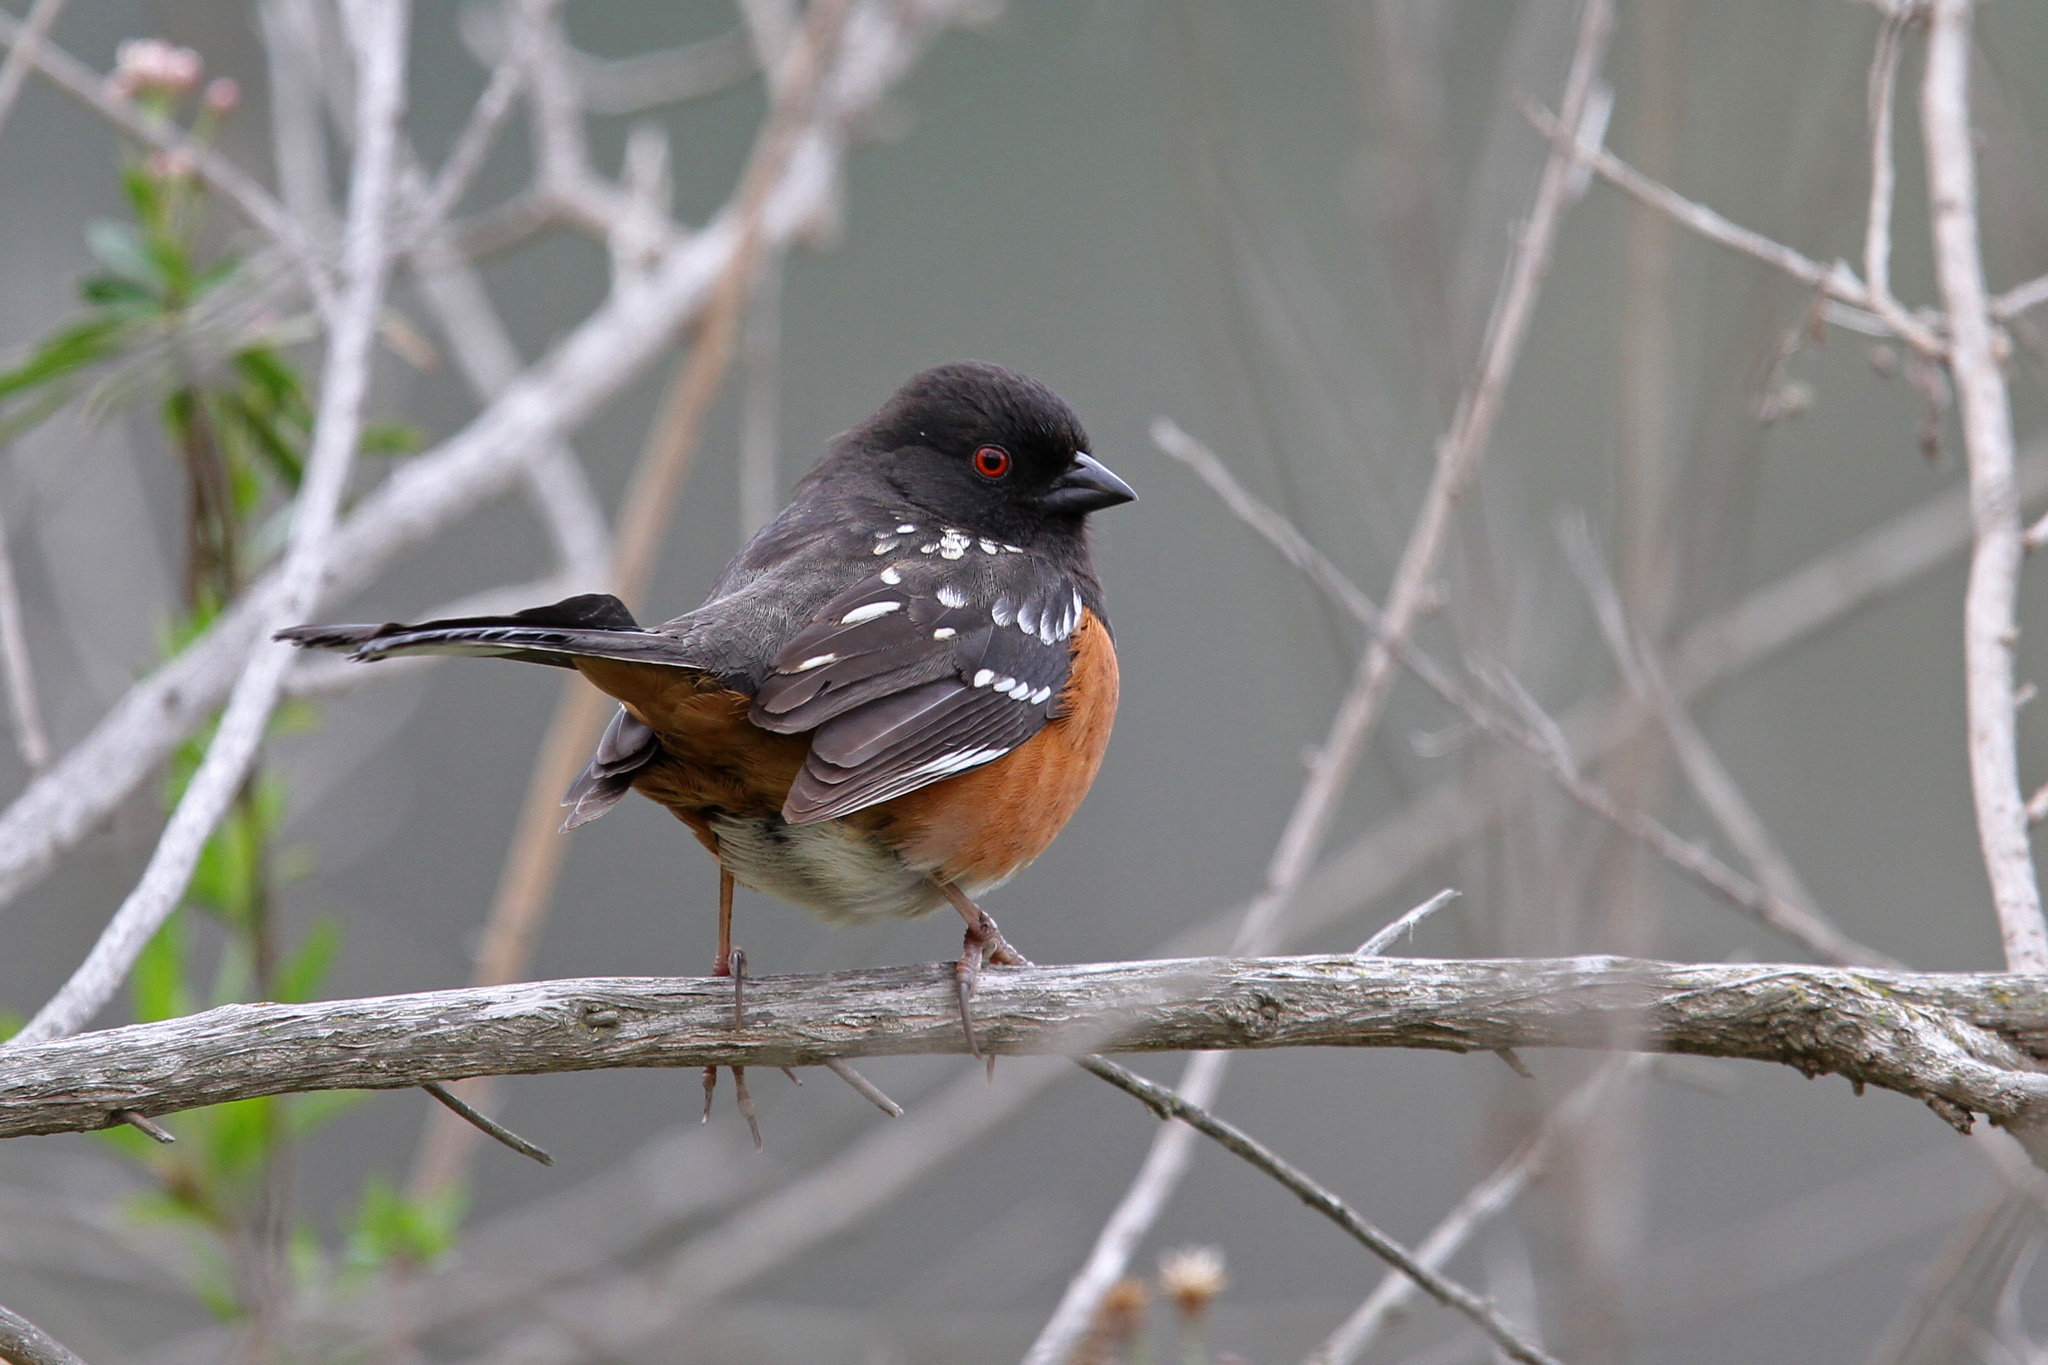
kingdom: Animalia
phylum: Chordata
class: Aves
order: Passeriformes
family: Passerellidae
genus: Pipilo
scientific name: Pipilo maculatus
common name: Spotted towhee
